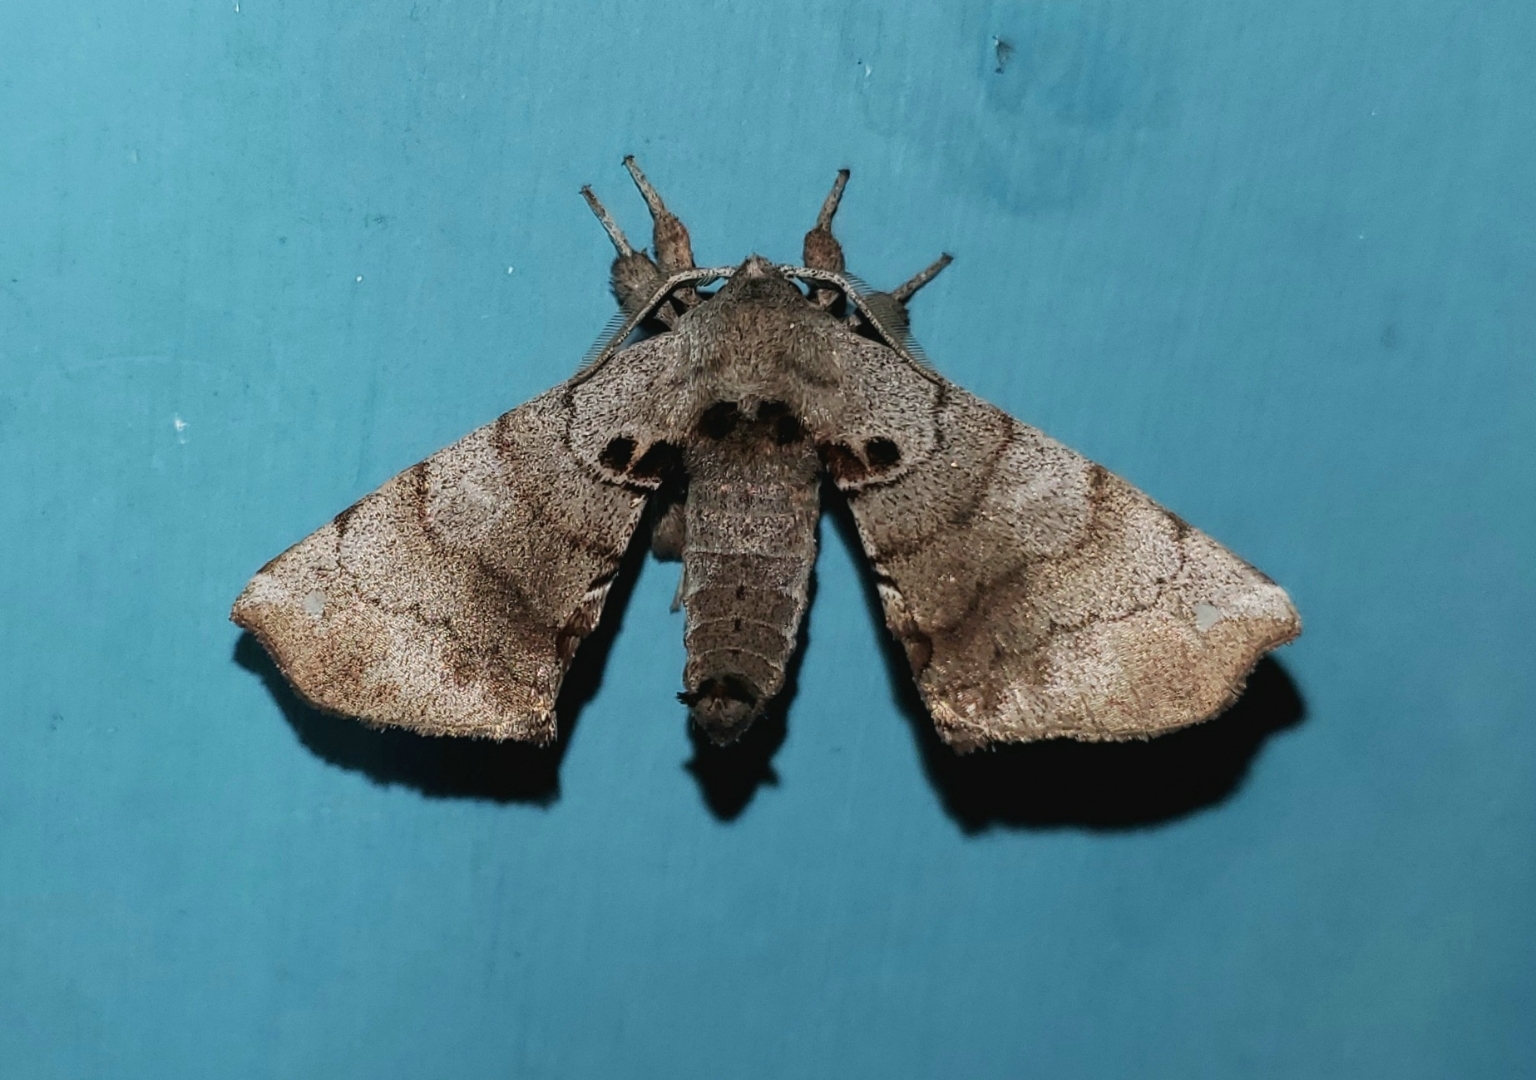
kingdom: Animalia
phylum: Arthropoda
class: Insecta
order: Lepidoptera
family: Apatelodidae
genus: Hygrochroa
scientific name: Hygrochroa Apatelodes torrefacta
